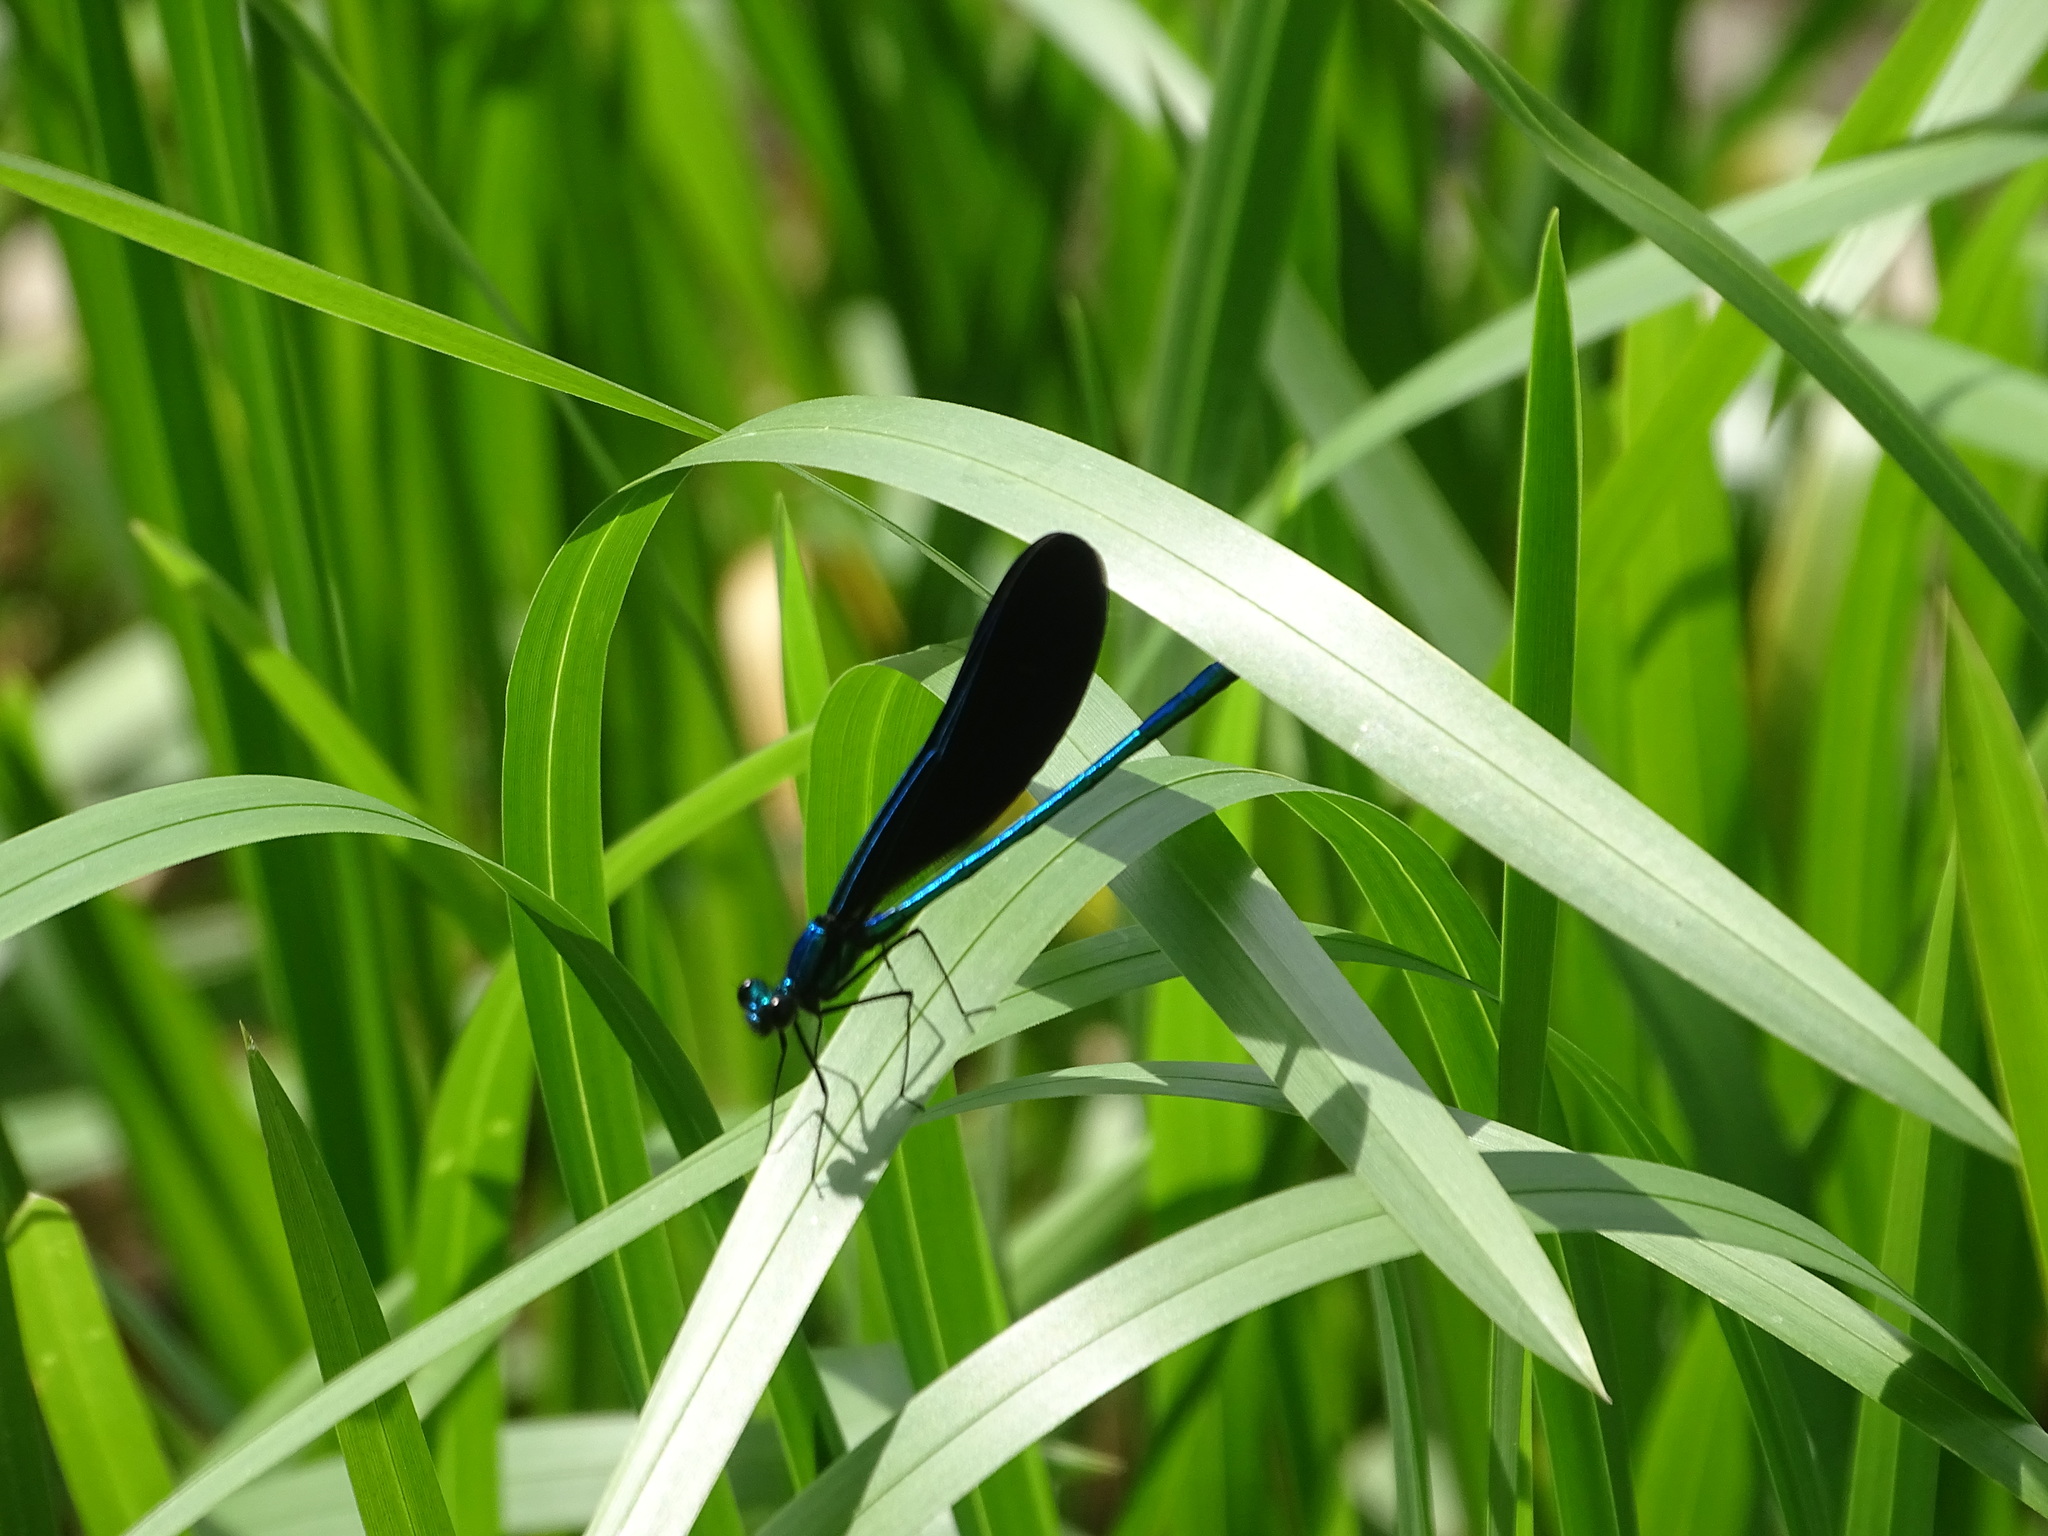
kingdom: Animalia
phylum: Arthropoda
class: Insecta
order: Odonata
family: Calopterygidae
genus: Calopteryx
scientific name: Calopteryx maculata
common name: Ebony jewelwing
